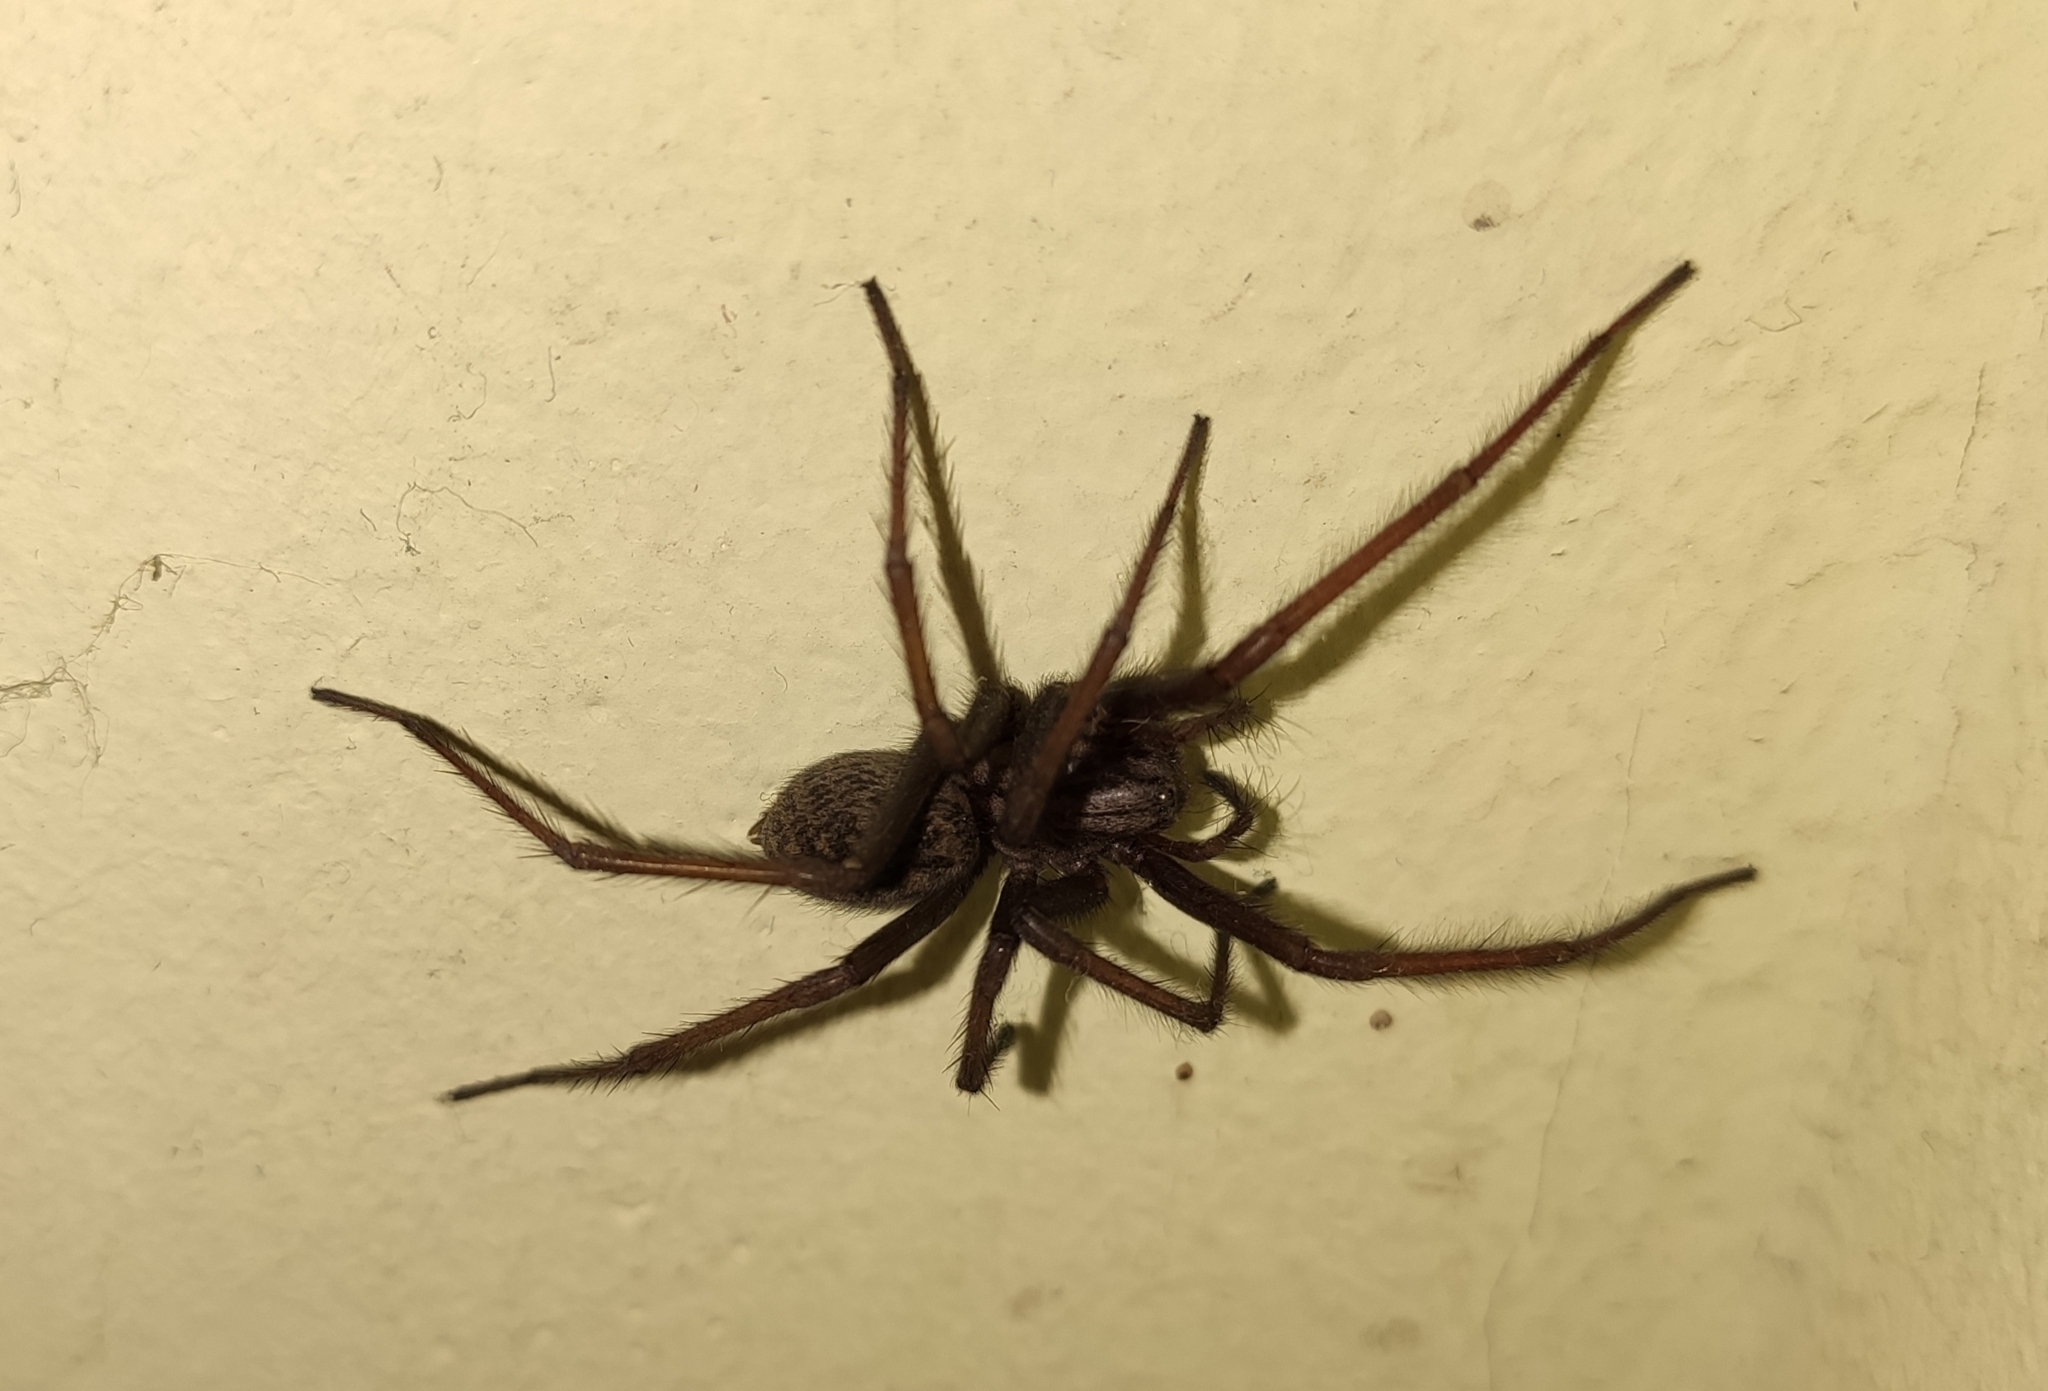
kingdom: Animalia
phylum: Arthropoda
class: Arachnida
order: Araneae
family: Agelenidae
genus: Eratigena
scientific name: Eratigena atrica
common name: Giant house spider
